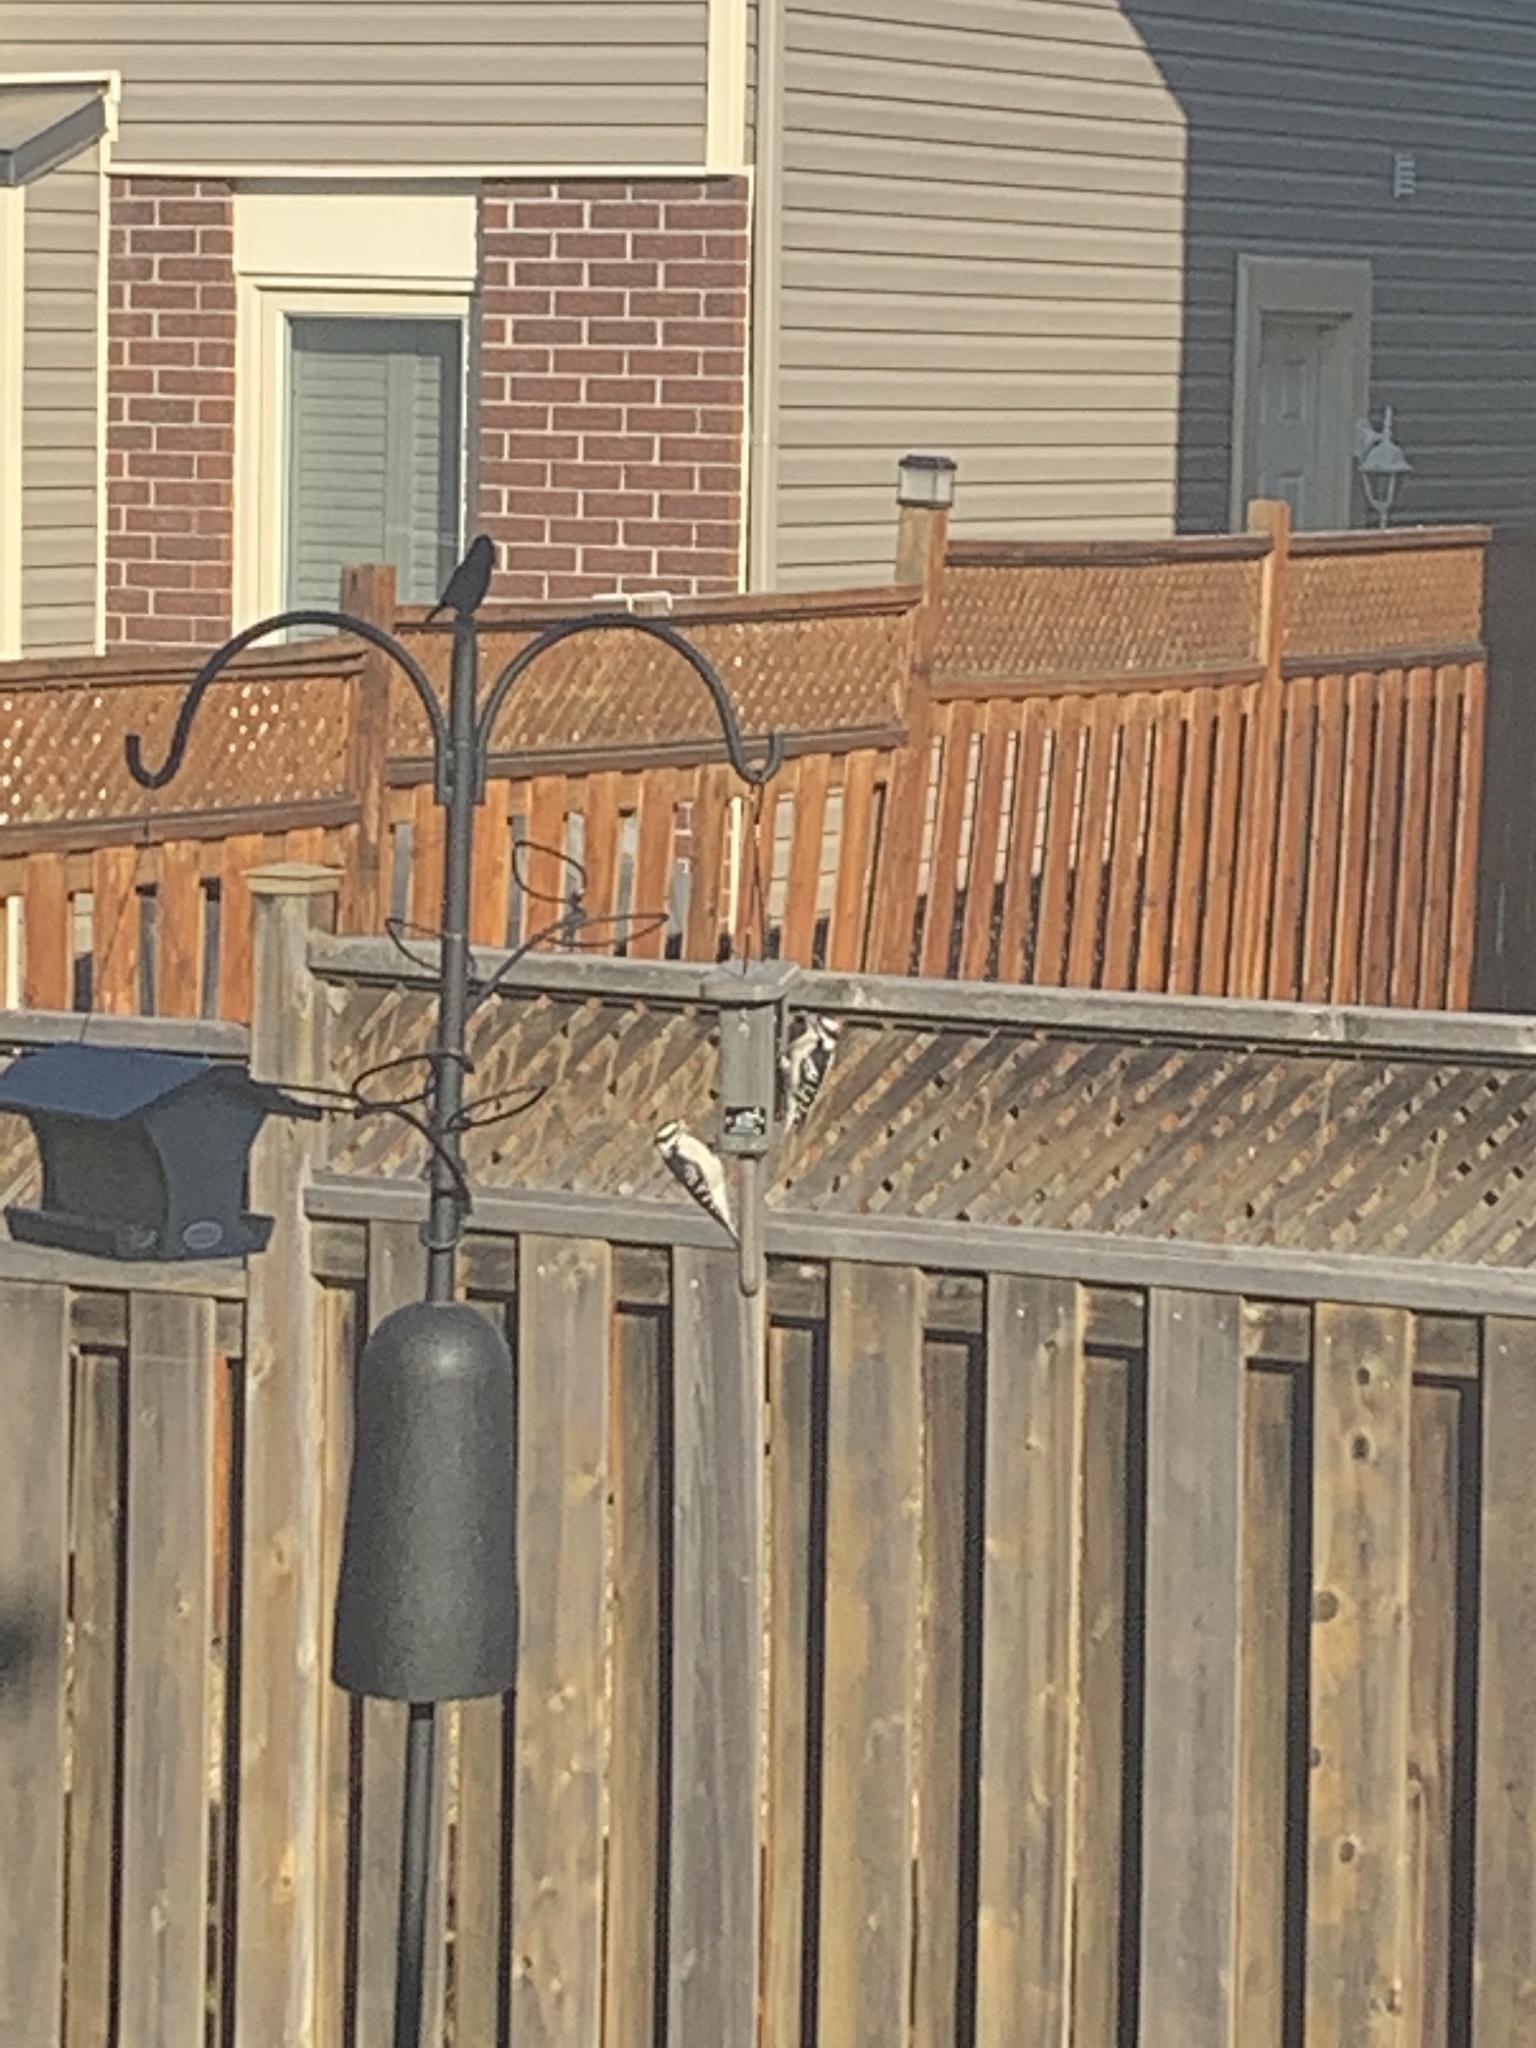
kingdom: Animalia
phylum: Chordata
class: Aves
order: Piciformes
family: Picidae
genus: Leuconotopicus
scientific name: Leuconotopicus villosus
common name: Hairy woodpecker
